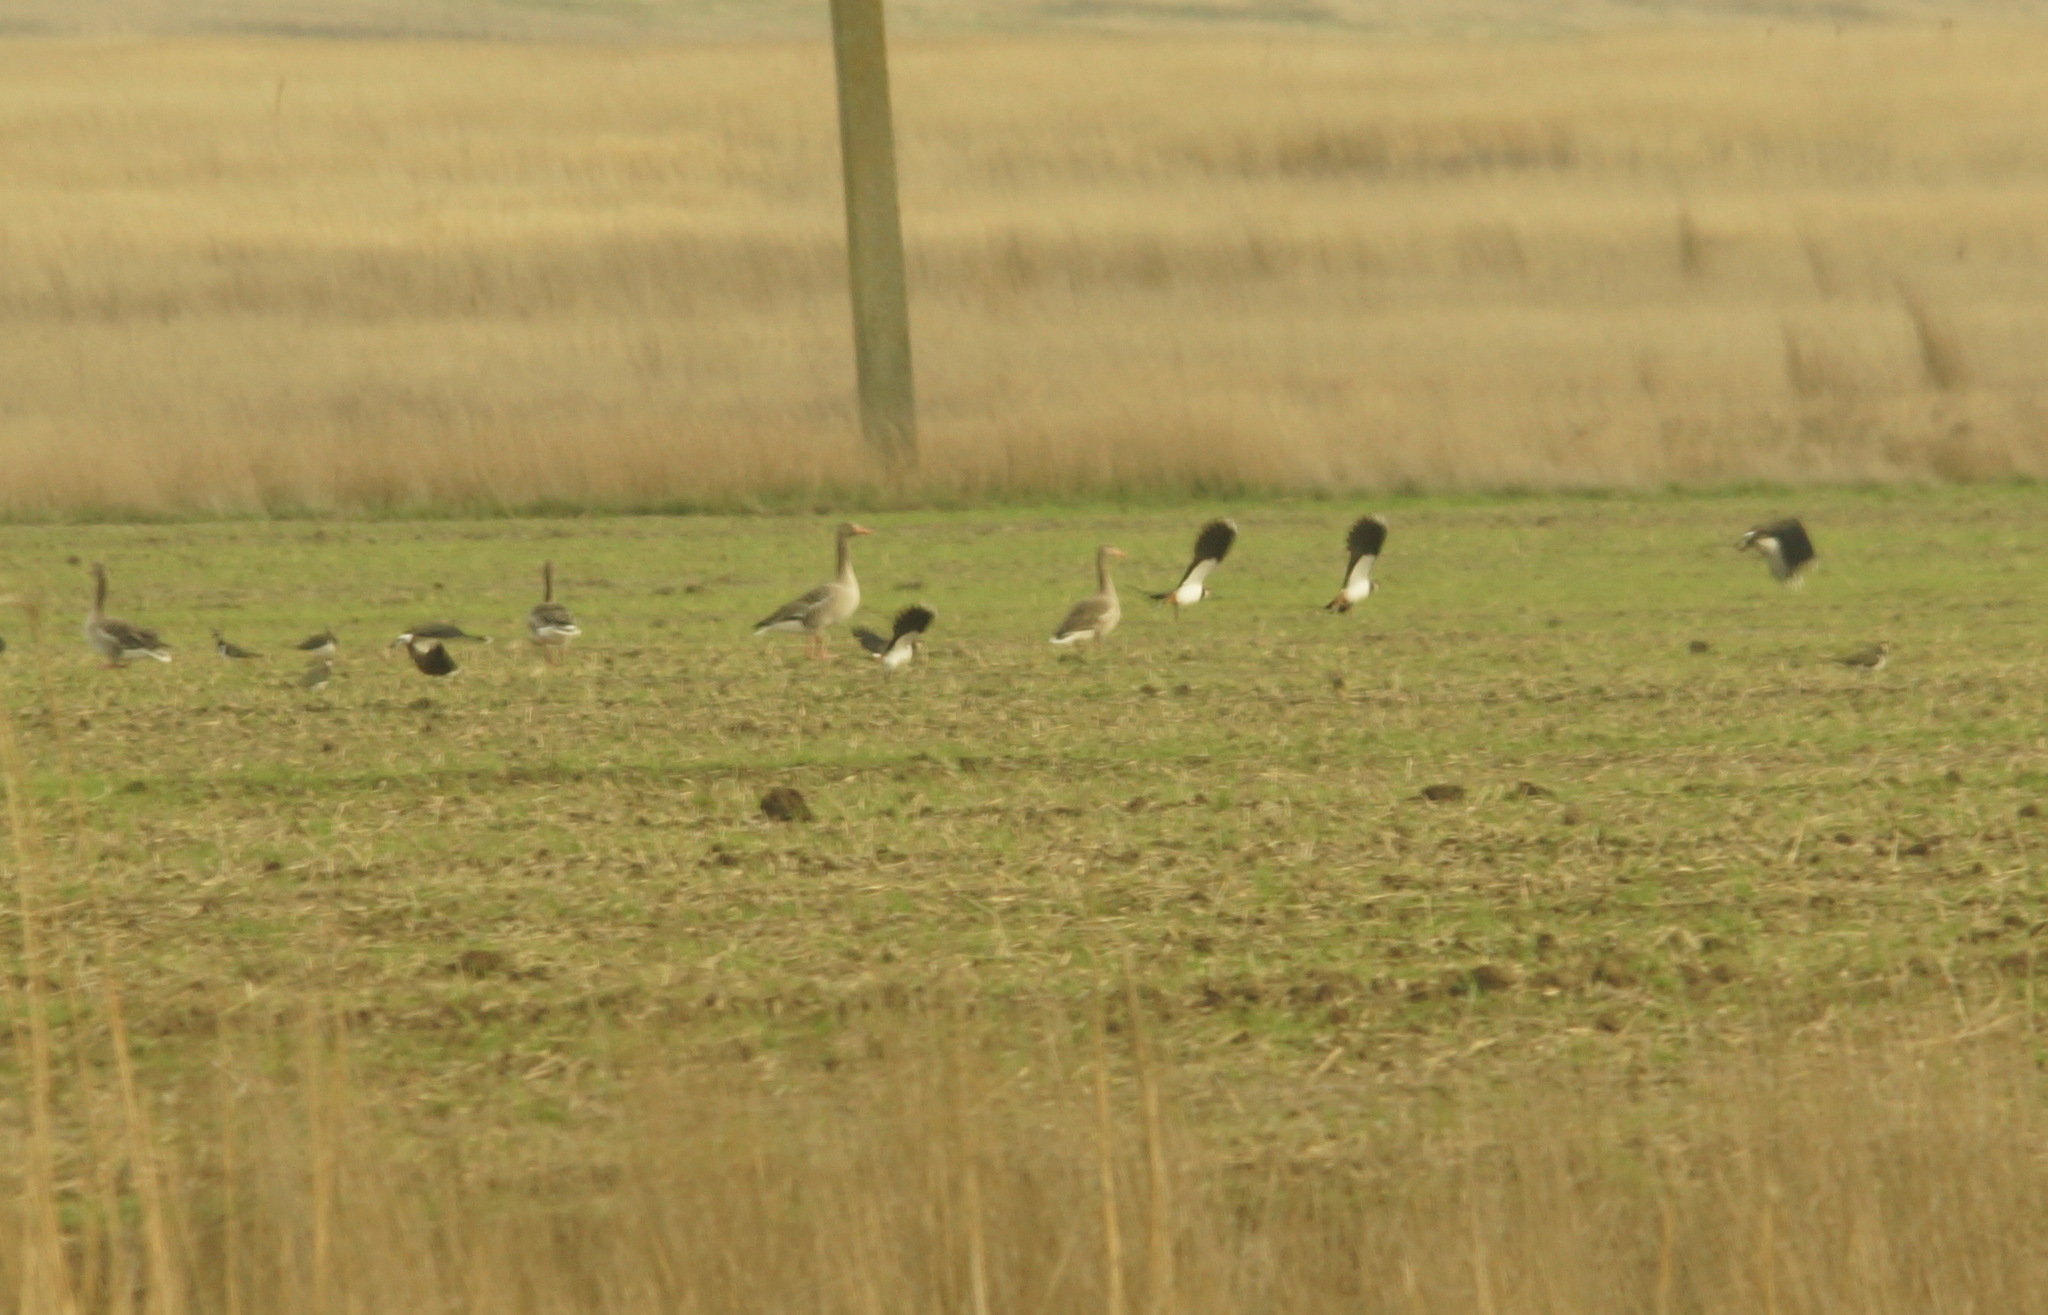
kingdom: Animalia
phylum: Chordata
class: Aves
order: Charadriiformes
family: Charadriidae
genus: Vanellus
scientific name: Vanellus vanellus
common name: Northern lapwing
